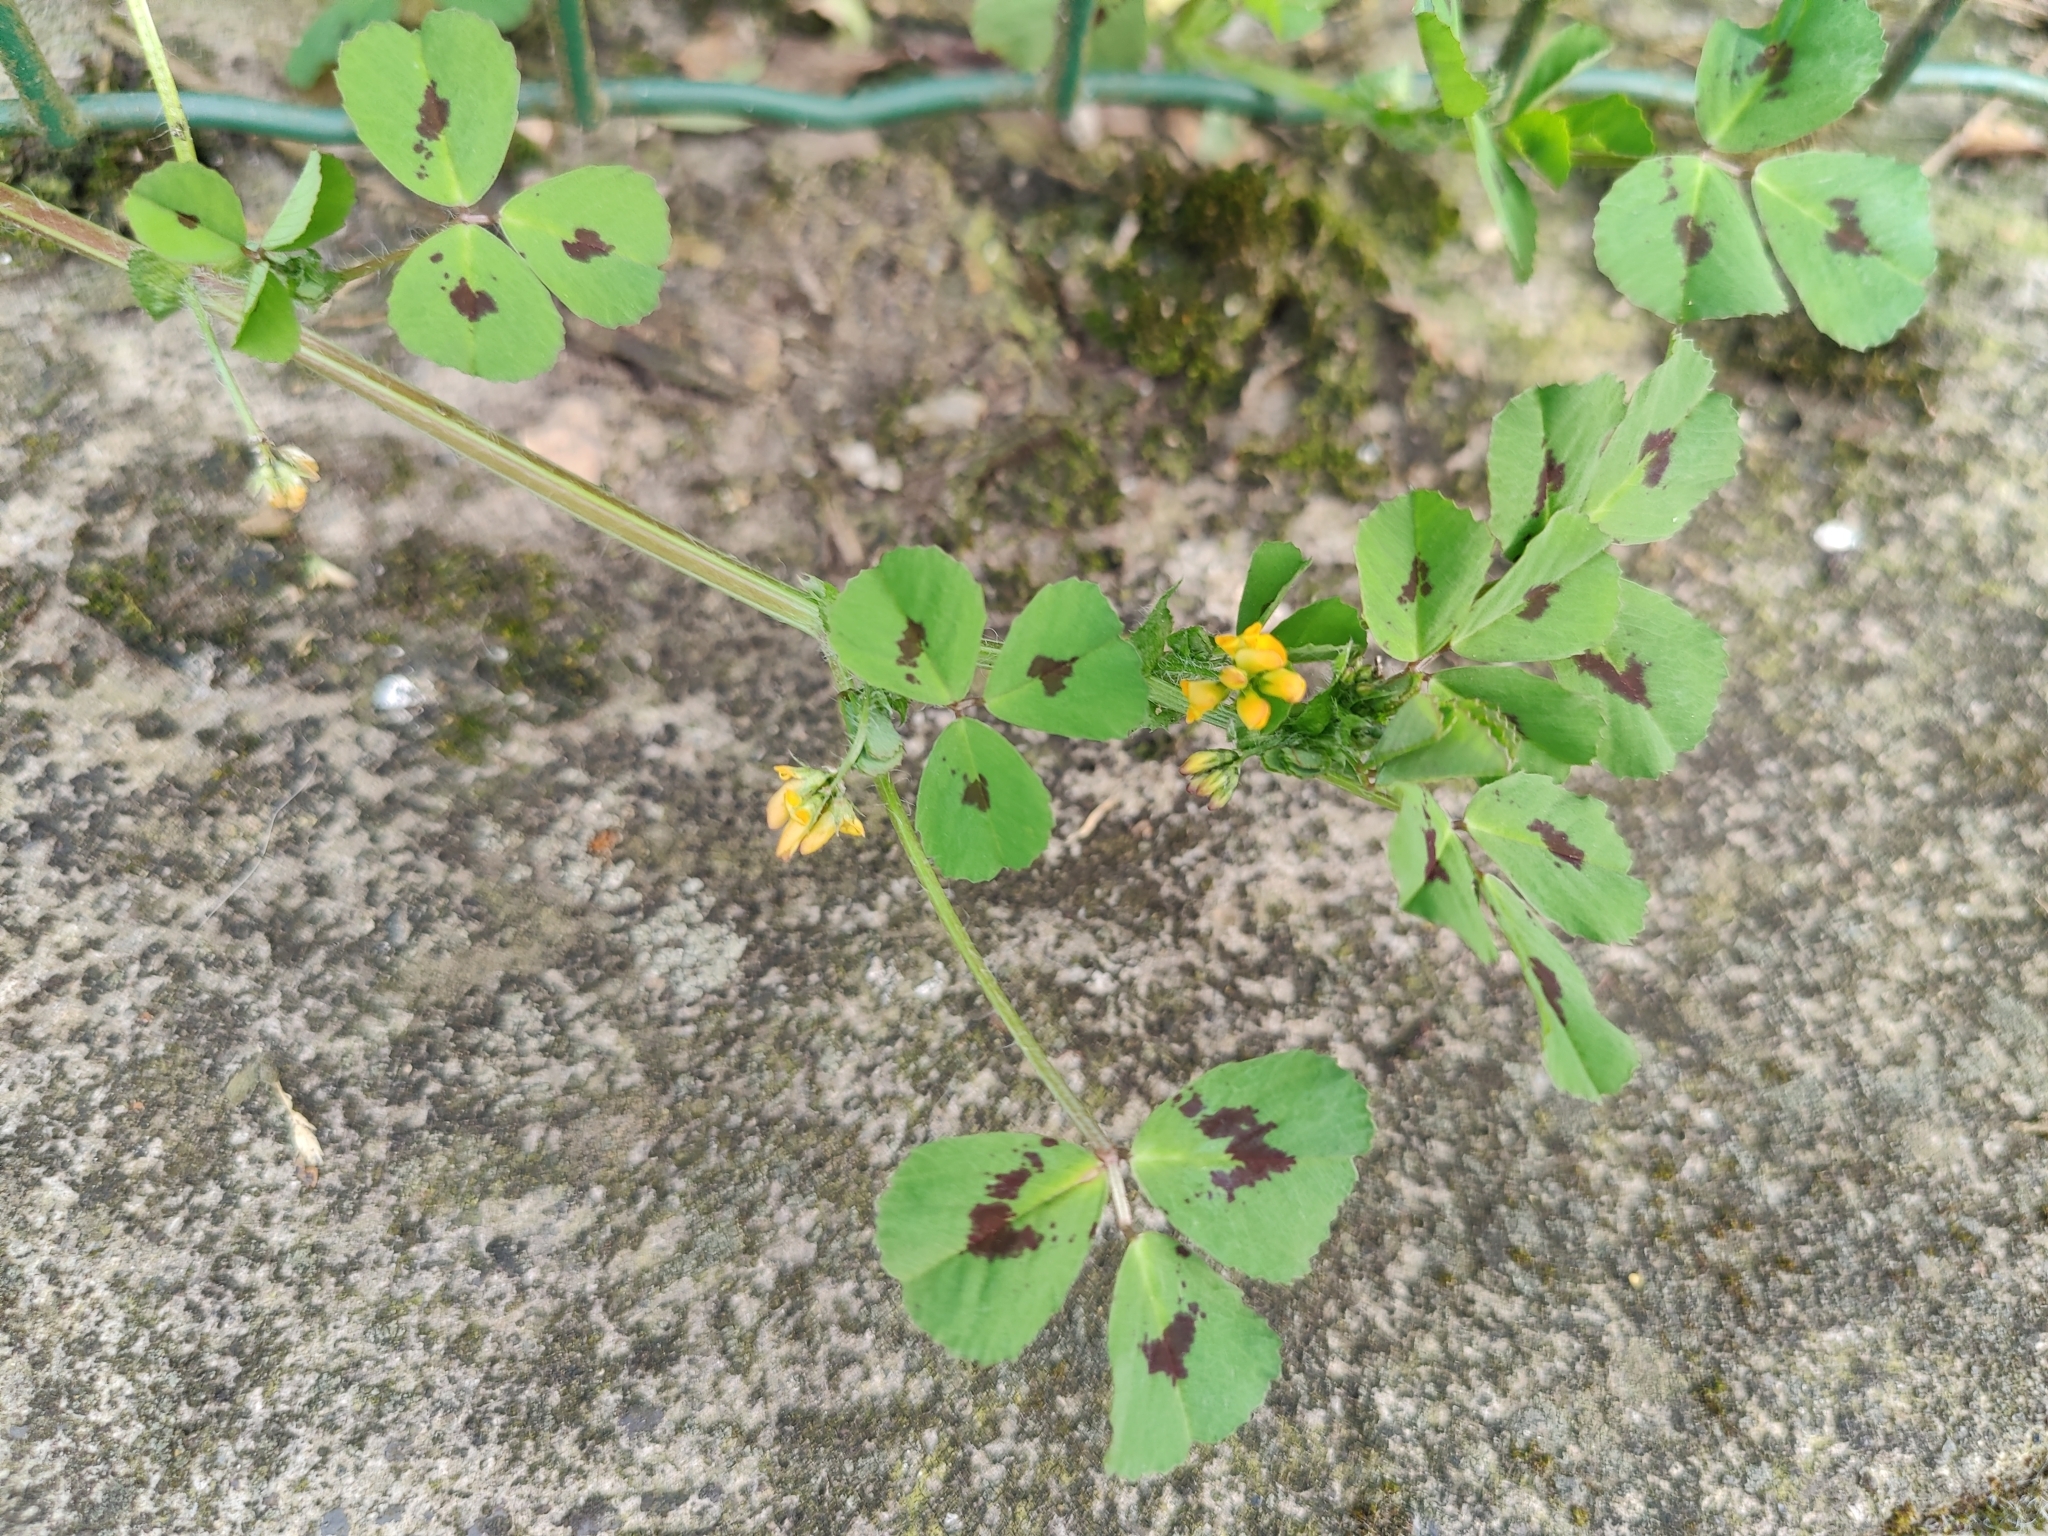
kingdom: Plantae
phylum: Tracheophyta
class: Magnoliopsida
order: Fabales
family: Fabaceae
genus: Medicago
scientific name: Medicago arabica
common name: Spotted medick
